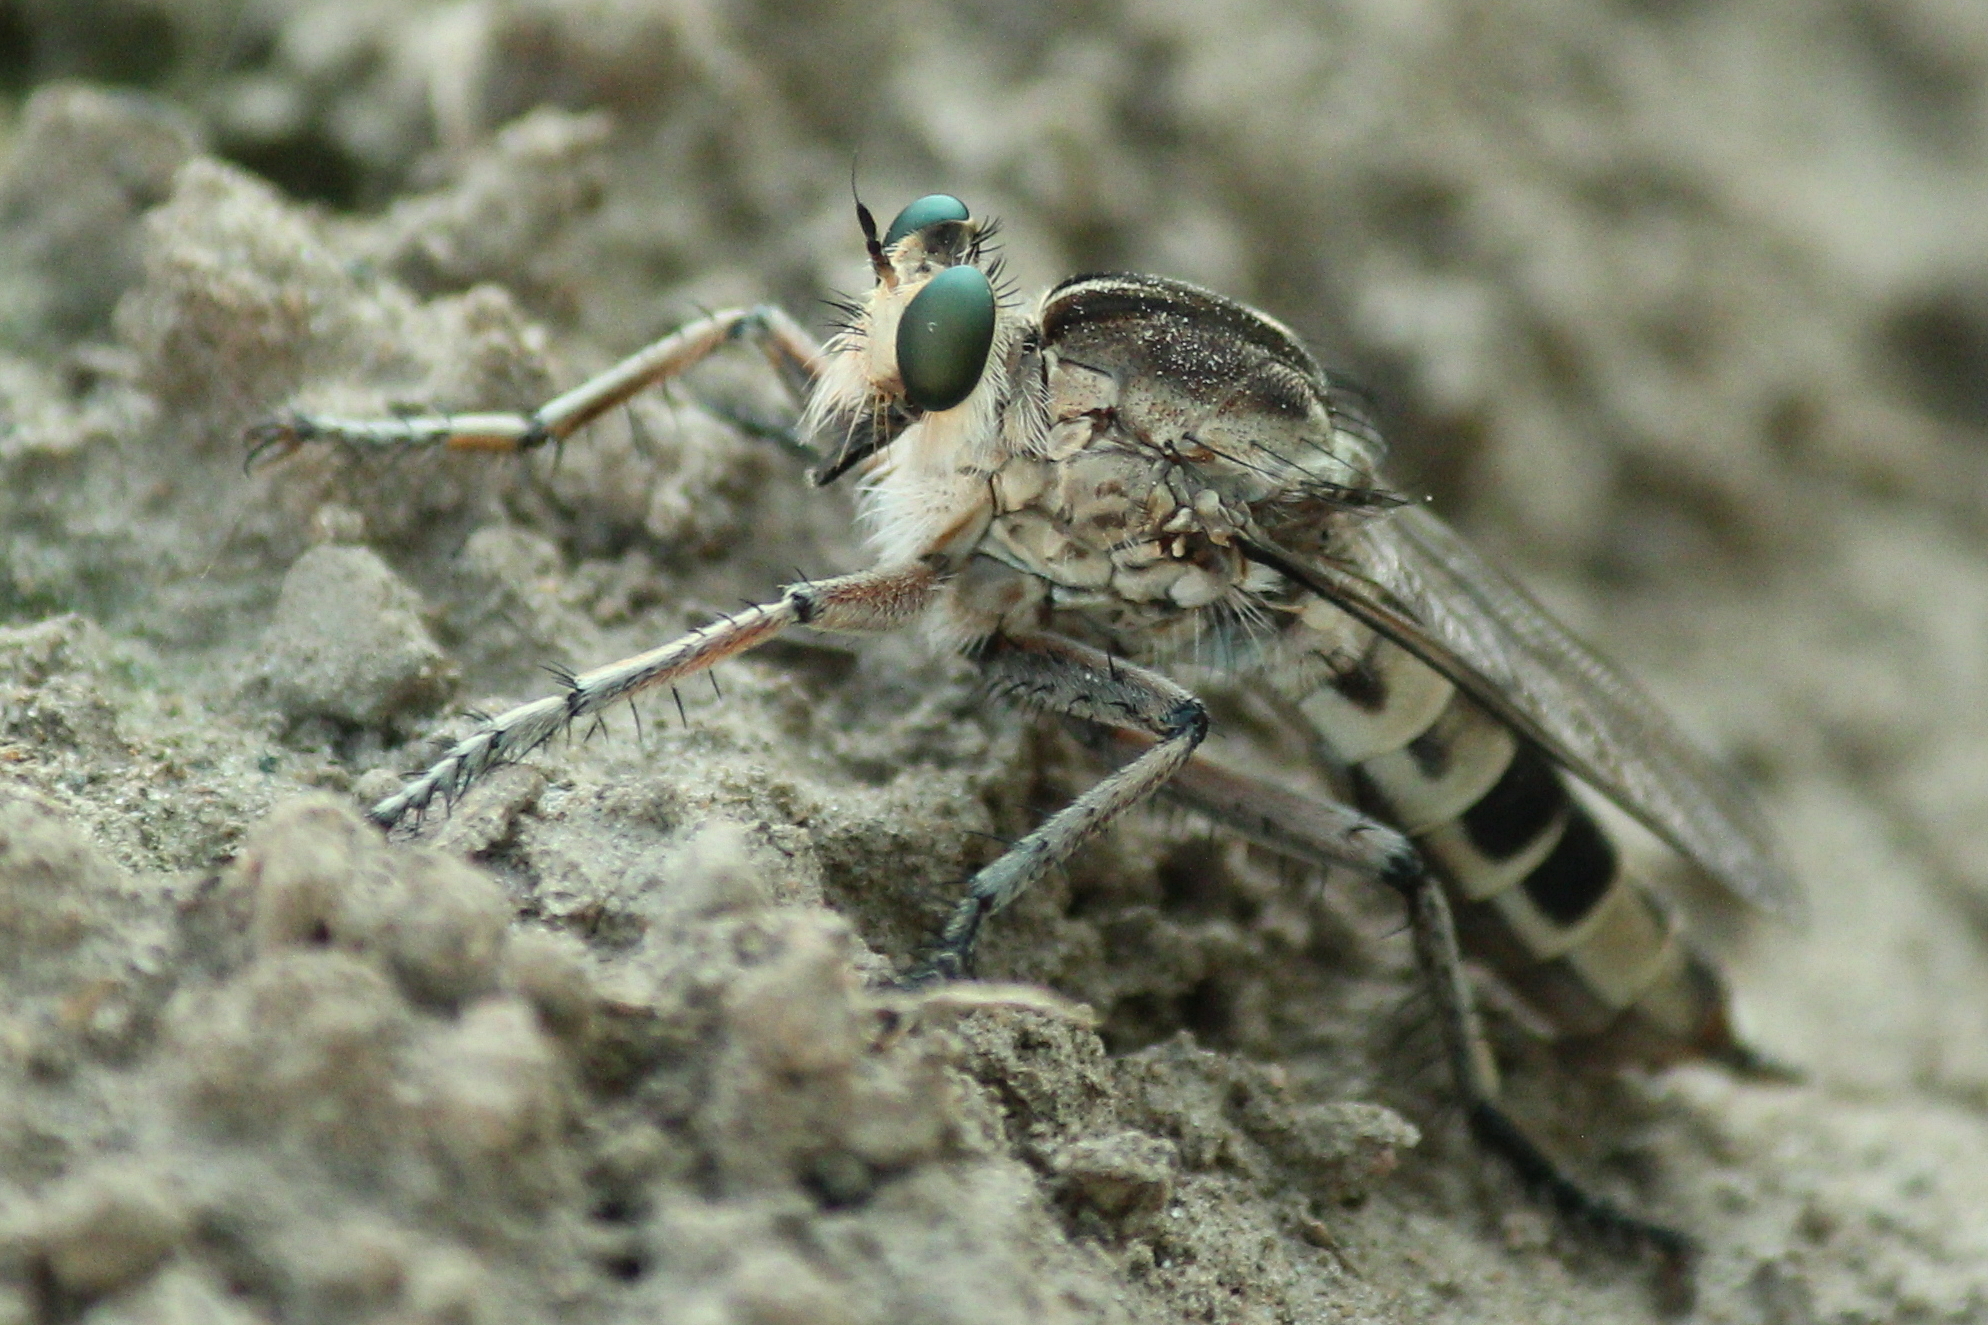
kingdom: Animalia
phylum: Arthropoda
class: Insecta
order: Diptera
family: Asilidae
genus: Triorla
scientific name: Triorla interrupta
